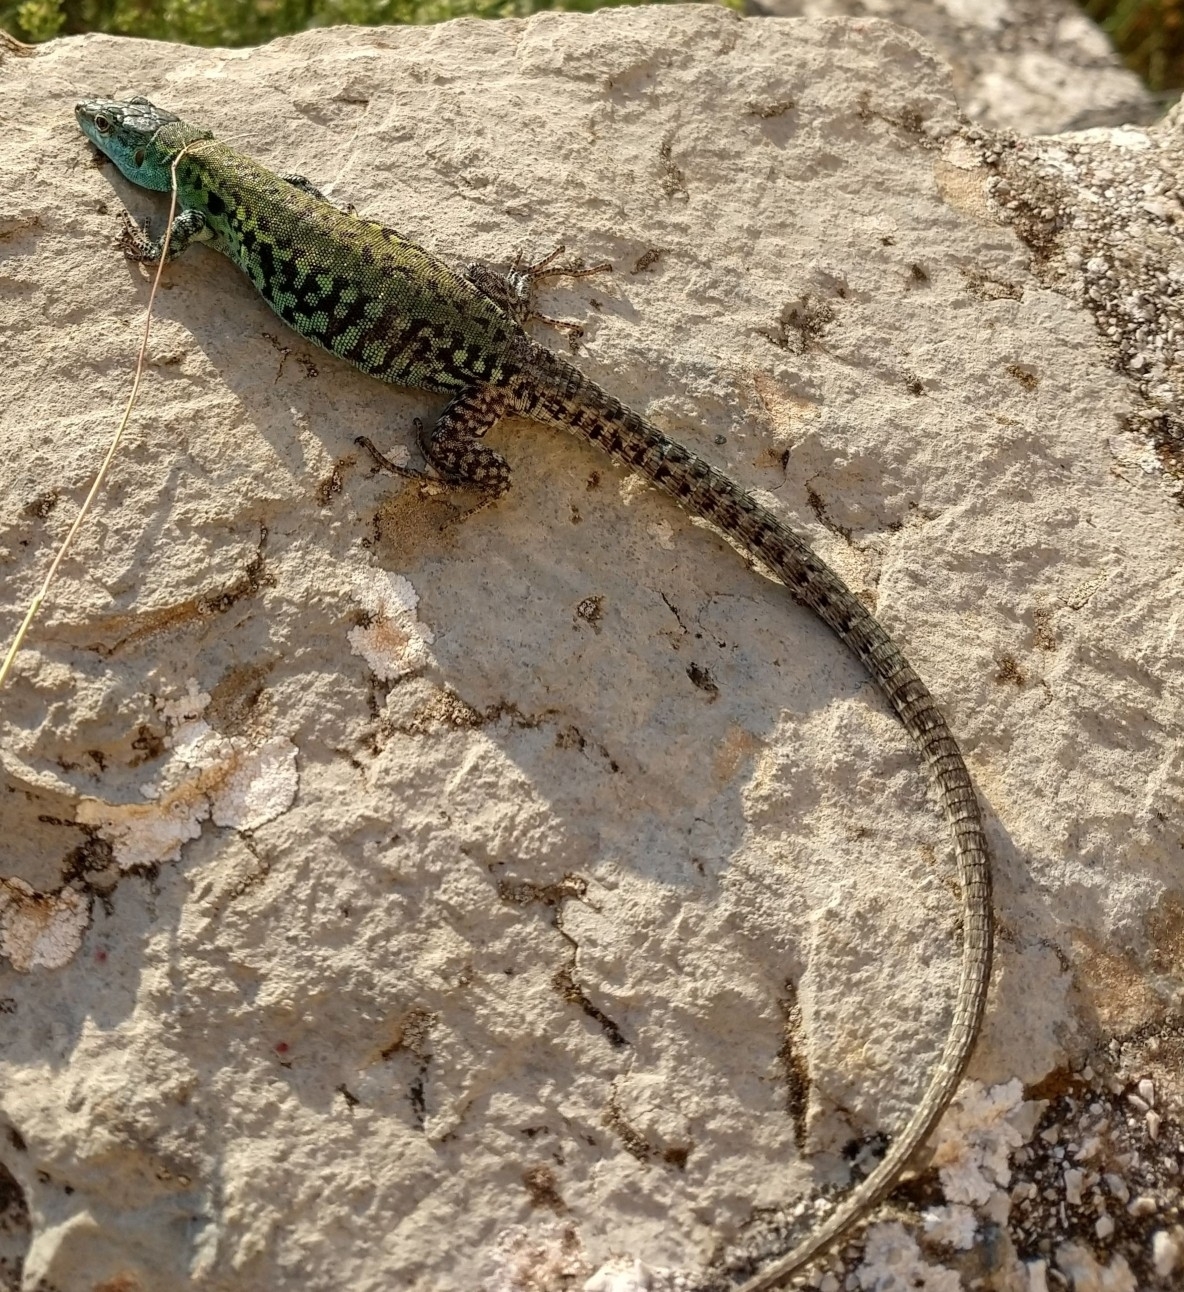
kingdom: Animalia
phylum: Chordata
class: Squamata
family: Lacertidae
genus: Podarcis
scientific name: Podarcis siculus
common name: Italian wall lizard
